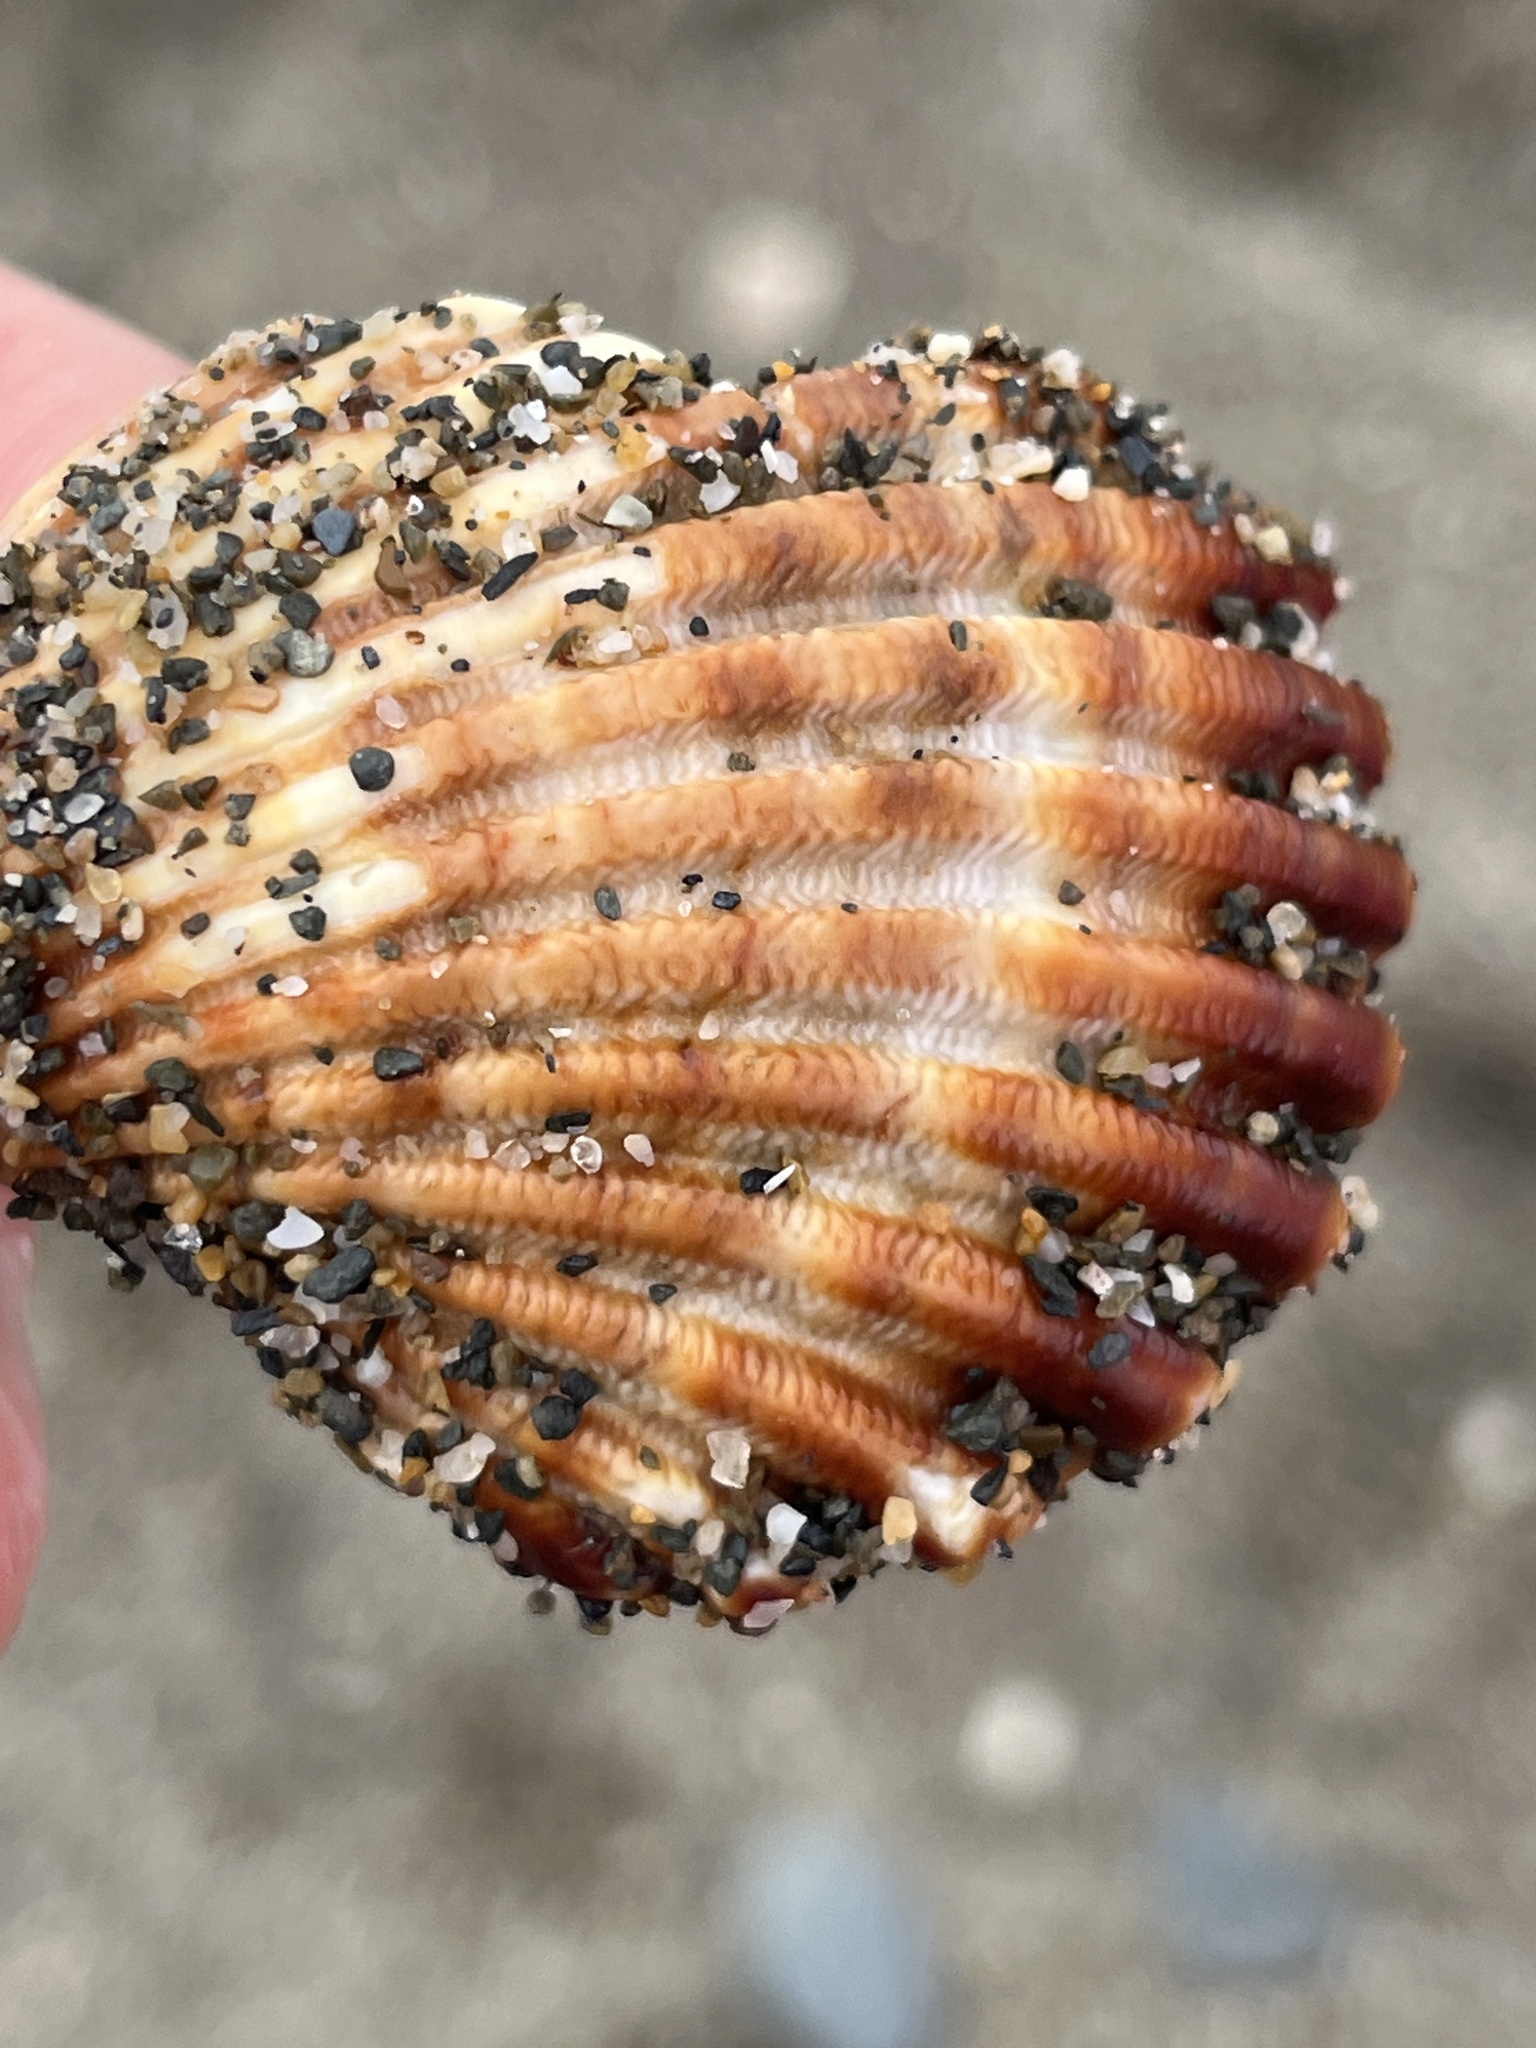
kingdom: Animalia
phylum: Mollusca
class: Bivalvia
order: Cardiida
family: Cardiidae
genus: Acanthocardia
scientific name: Acanthocardia tuberculata
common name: Rough cockle
